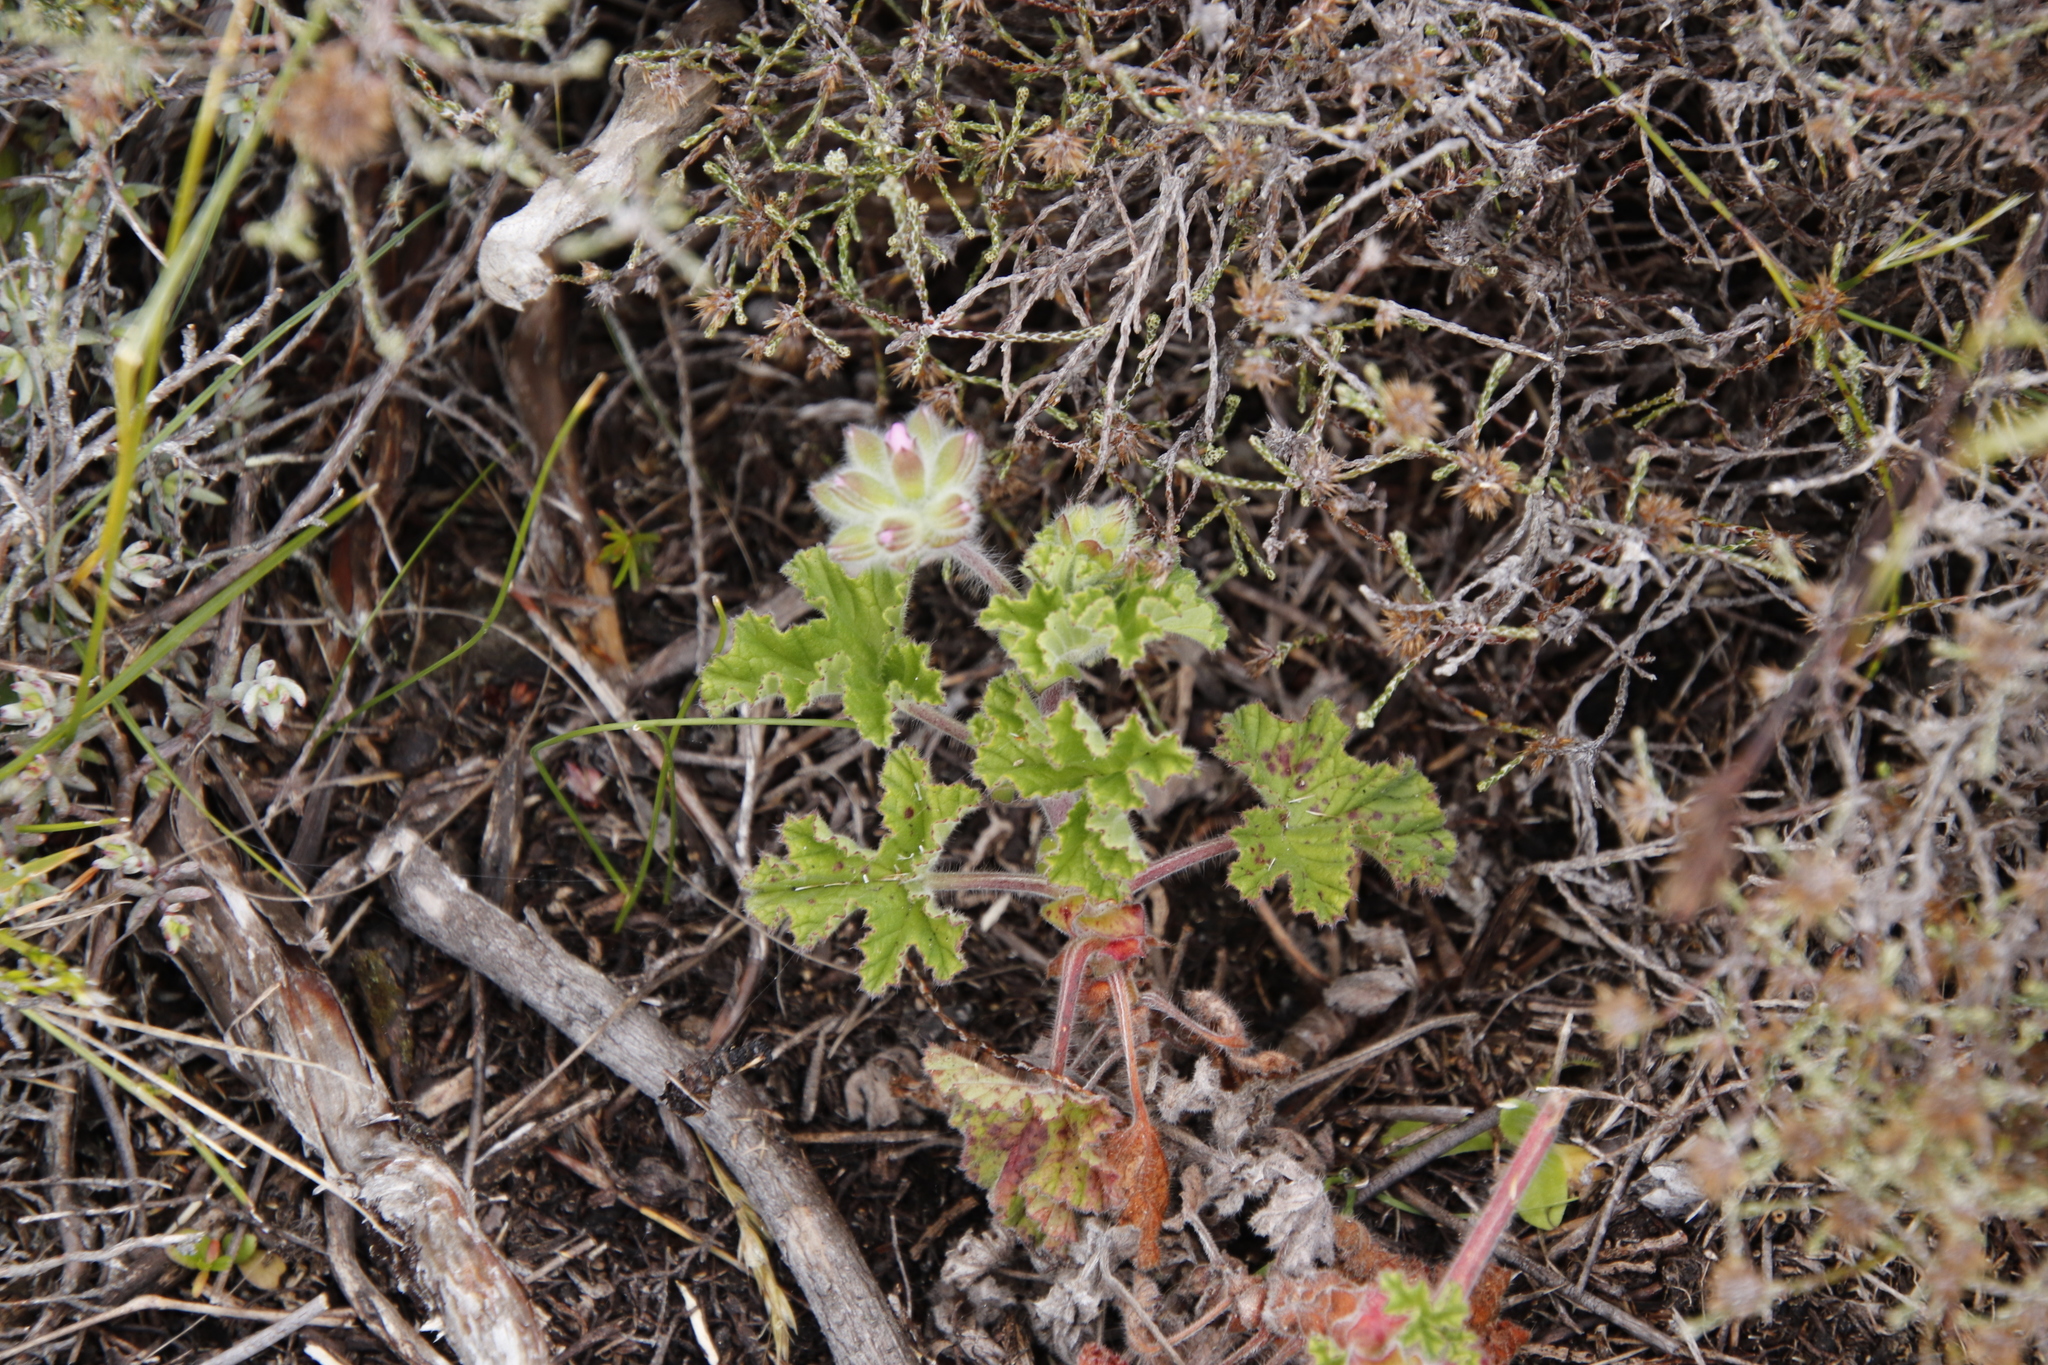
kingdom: Plantae
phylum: Tracheophyta
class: Magnoliopsida
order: Geraniales
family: Geraniaceae
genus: Pelargonium
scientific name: Pelargonium capitatum
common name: Rose scented geranium
